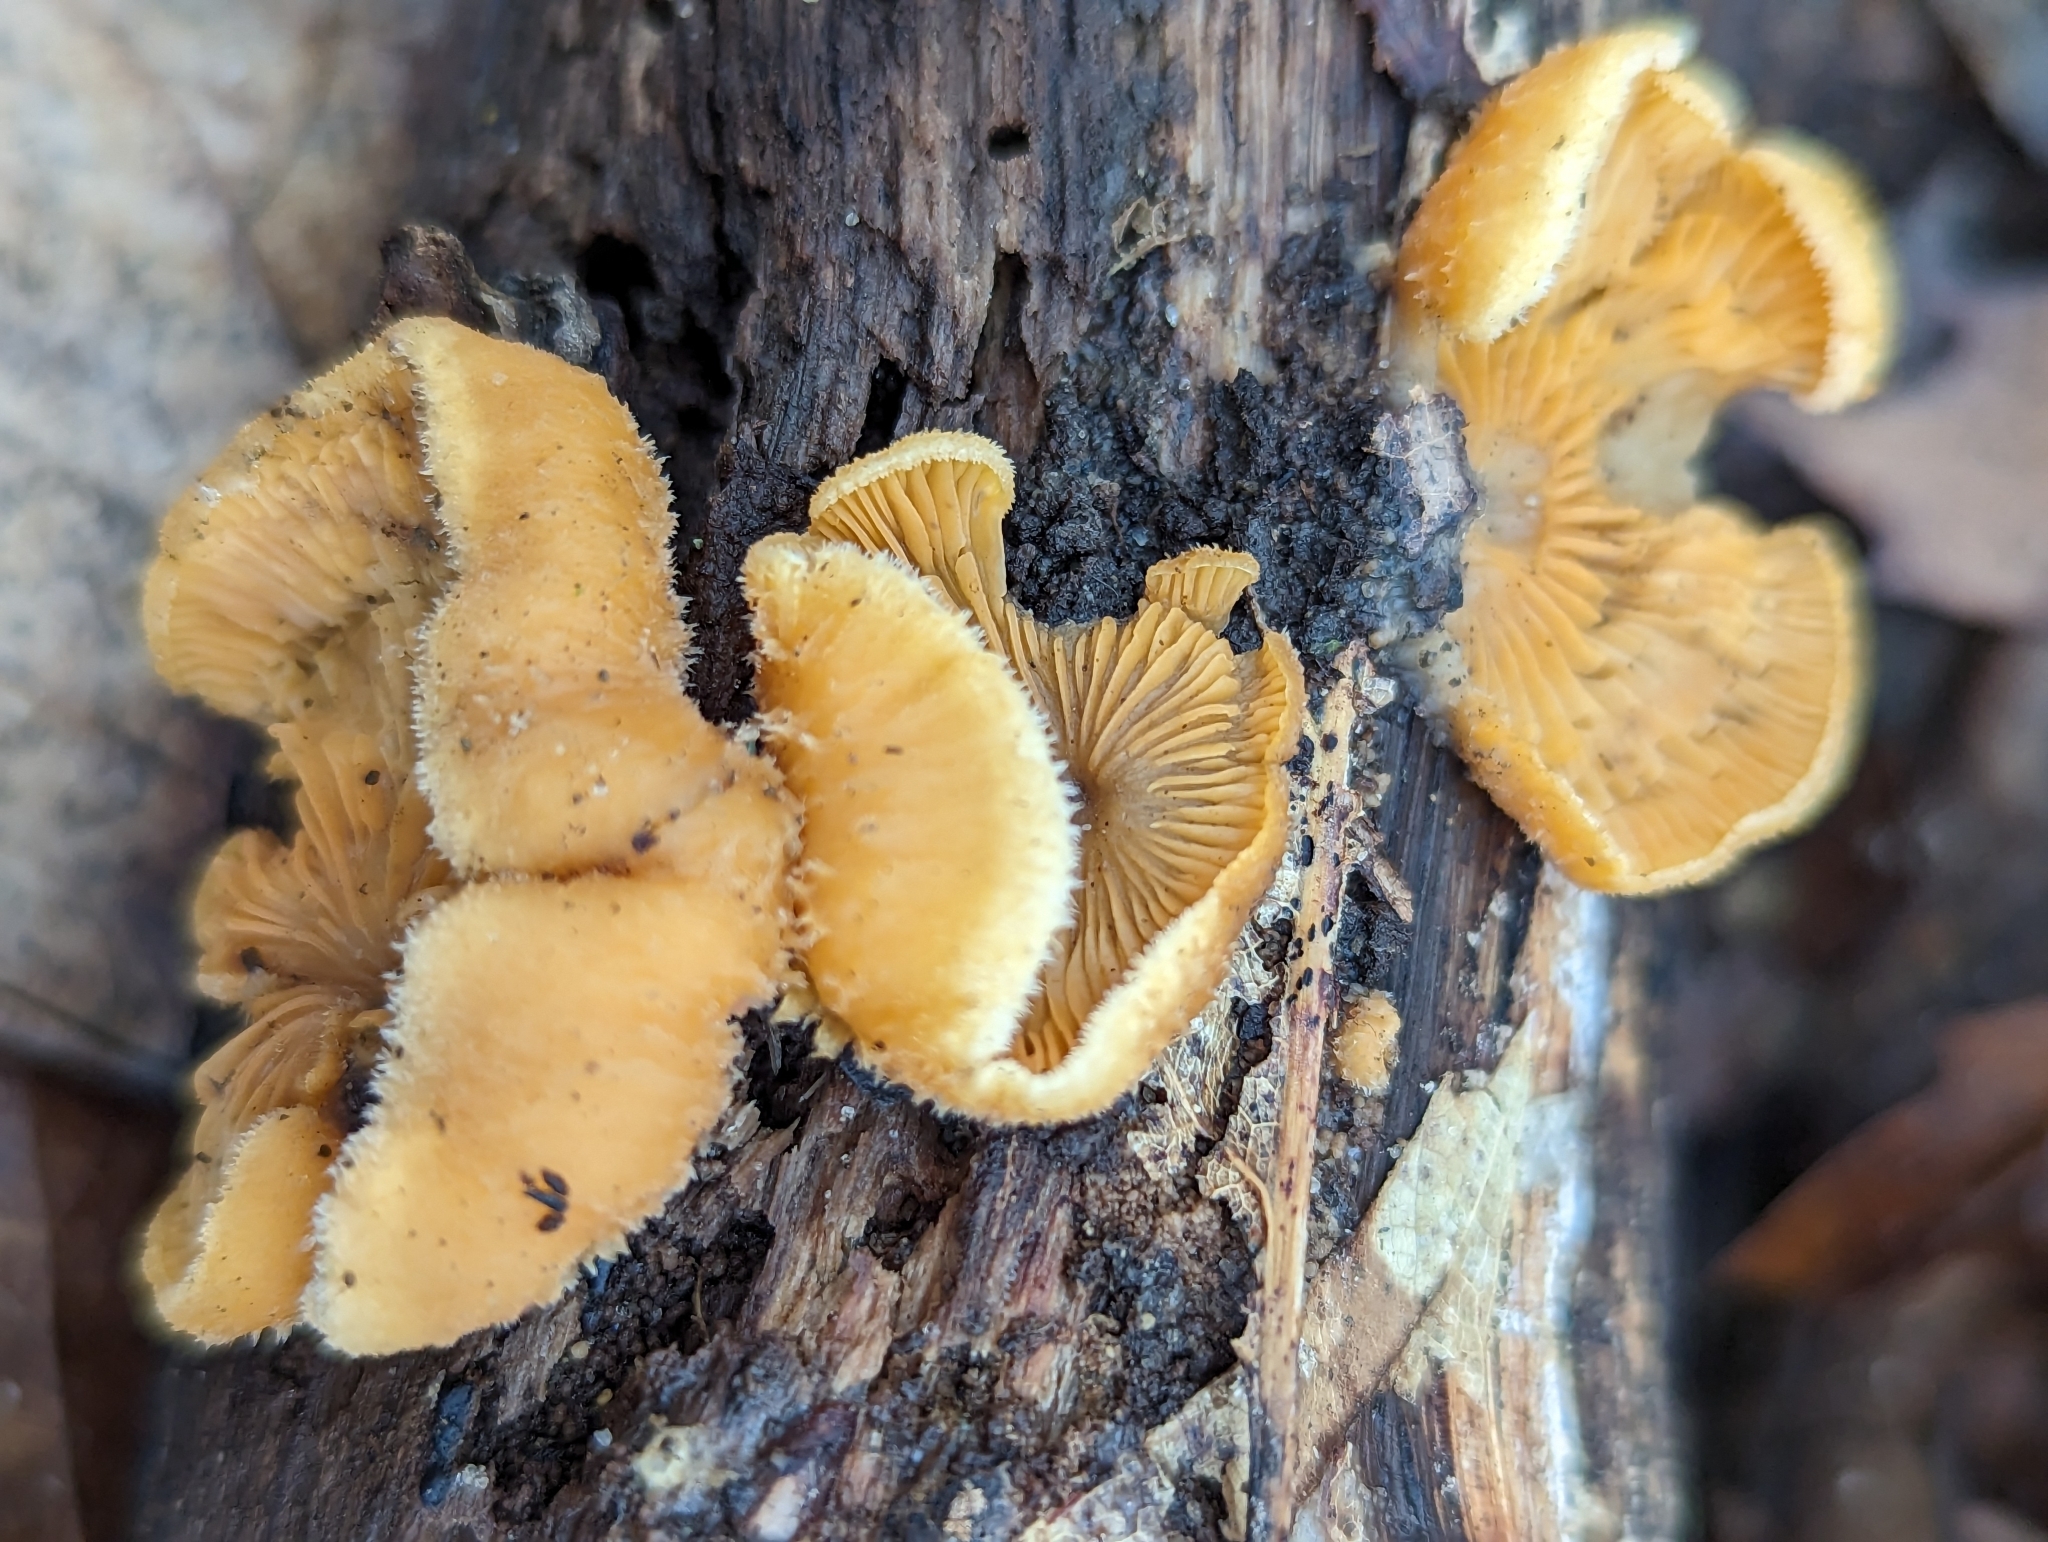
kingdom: Fungi
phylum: Basidiomycota
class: Agaricomycetes
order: Agaricales
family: Phyllotopsidaceae
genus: Phyllotopsis
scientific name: Phyllotopsis nidulans
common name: Orange mock oyster
